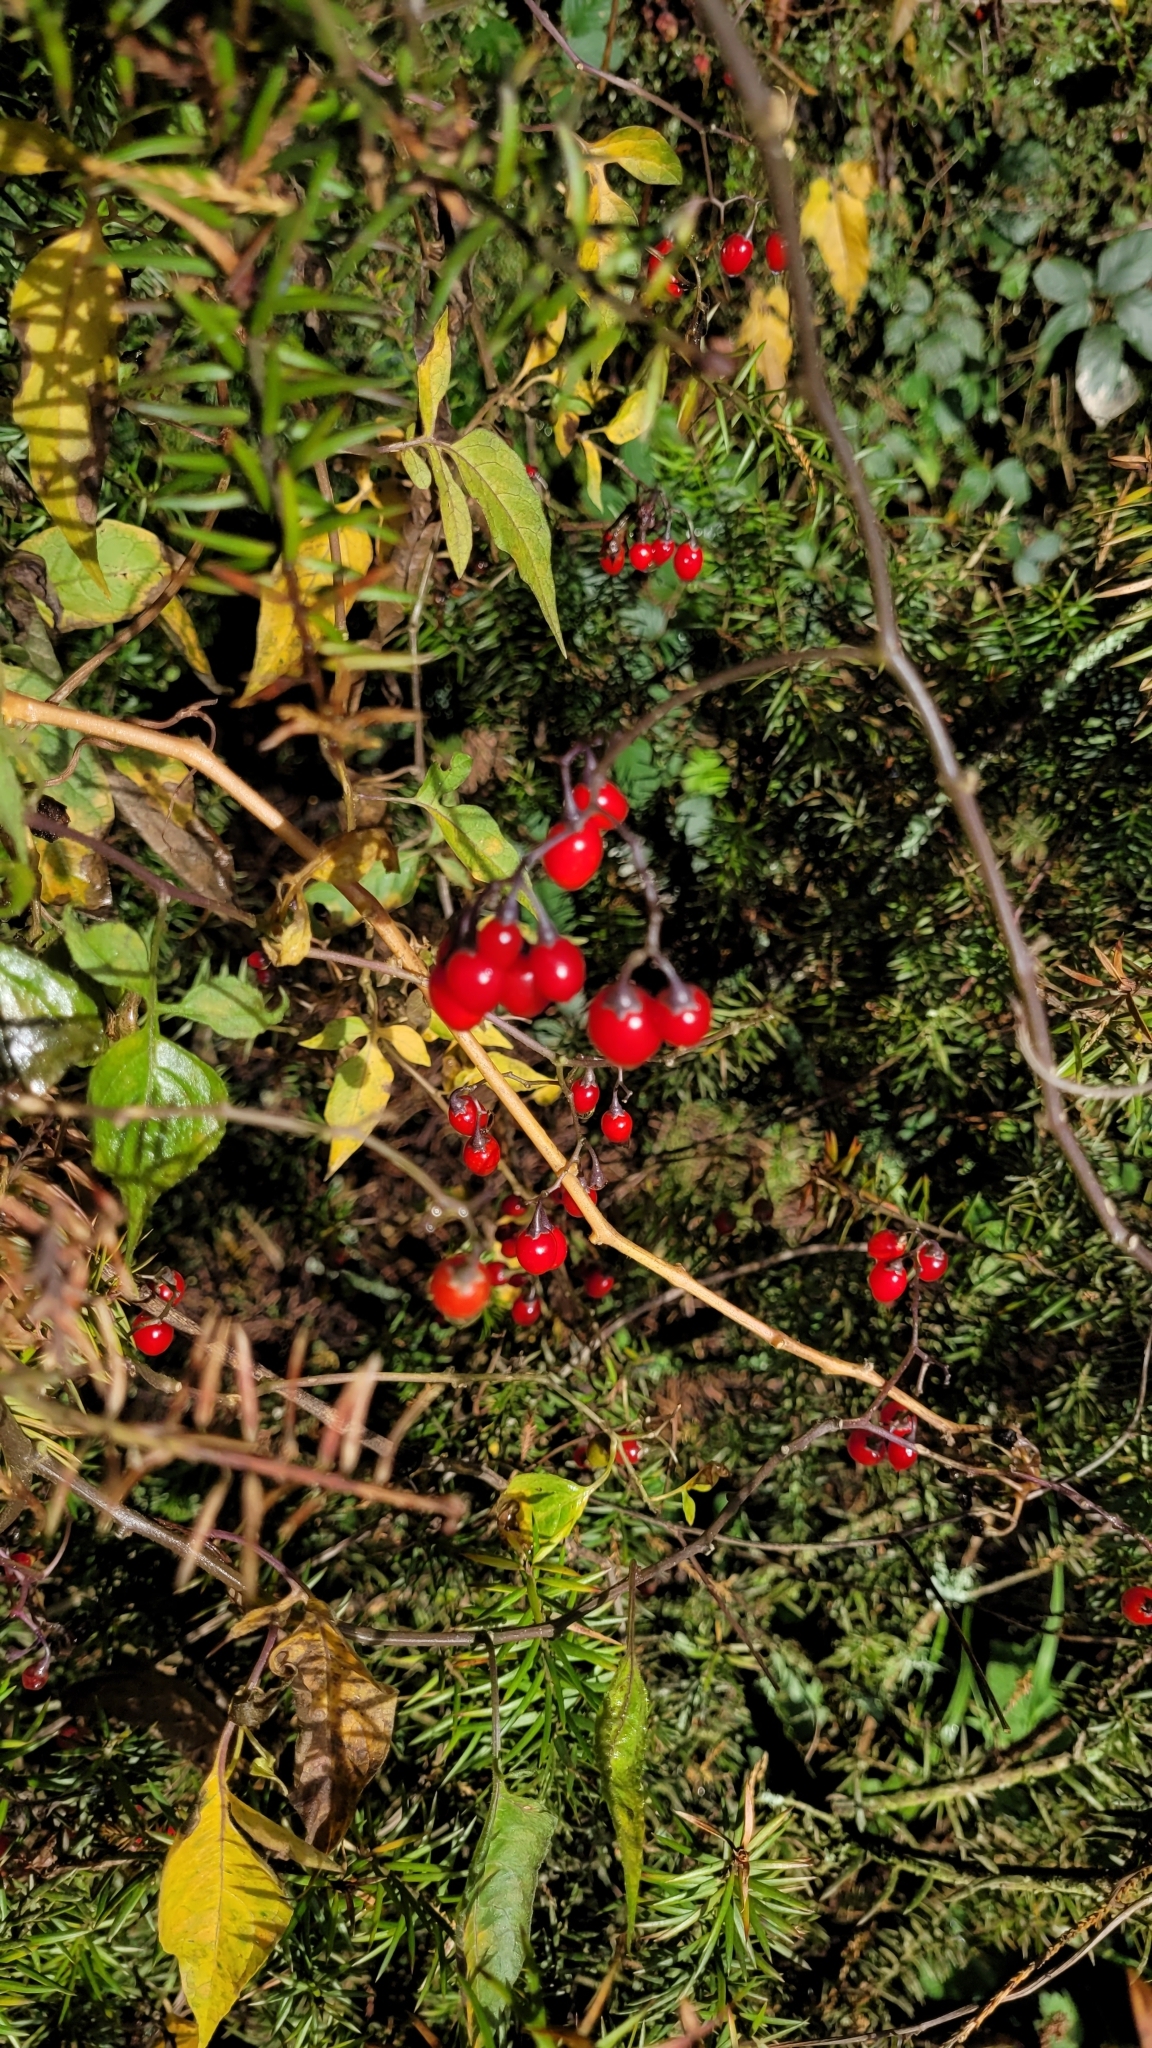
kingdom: Plantae
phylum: Tracheophyta
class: Magnoliopsida
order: Solanales
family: Solanaceae
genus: Solanum
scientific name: Solanum dulcamara
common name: Climbing nightshade
